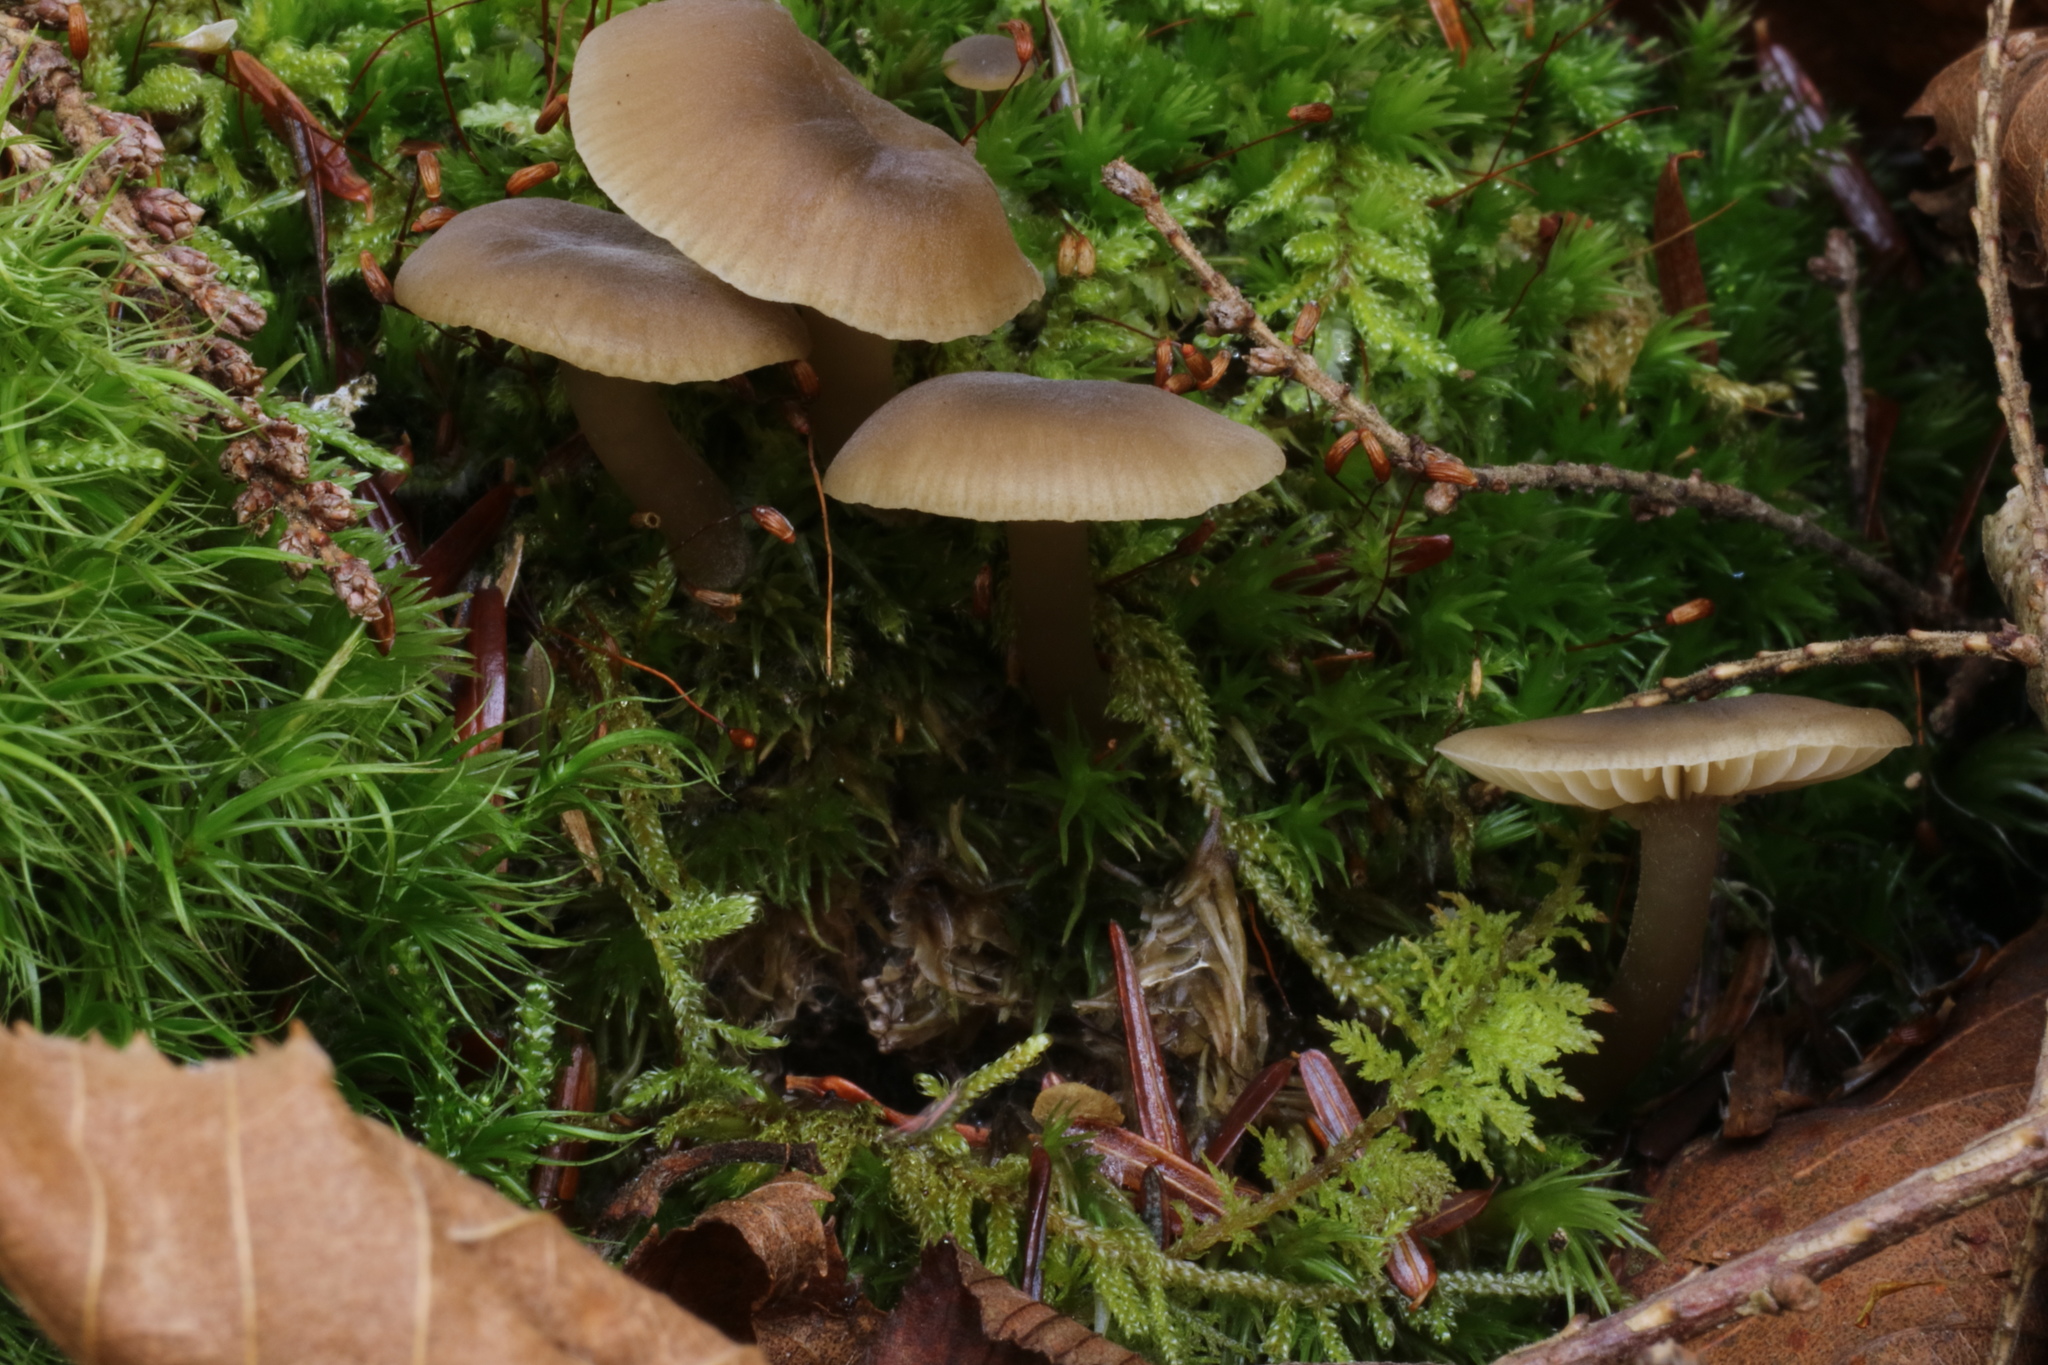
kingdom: Fungi
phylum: Basidiomycota
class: Agaricomycetes
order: Agaricales
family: Tricholomataceae
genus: Gamundia
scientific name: Gamundia striatula
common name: Lined meadowcap
